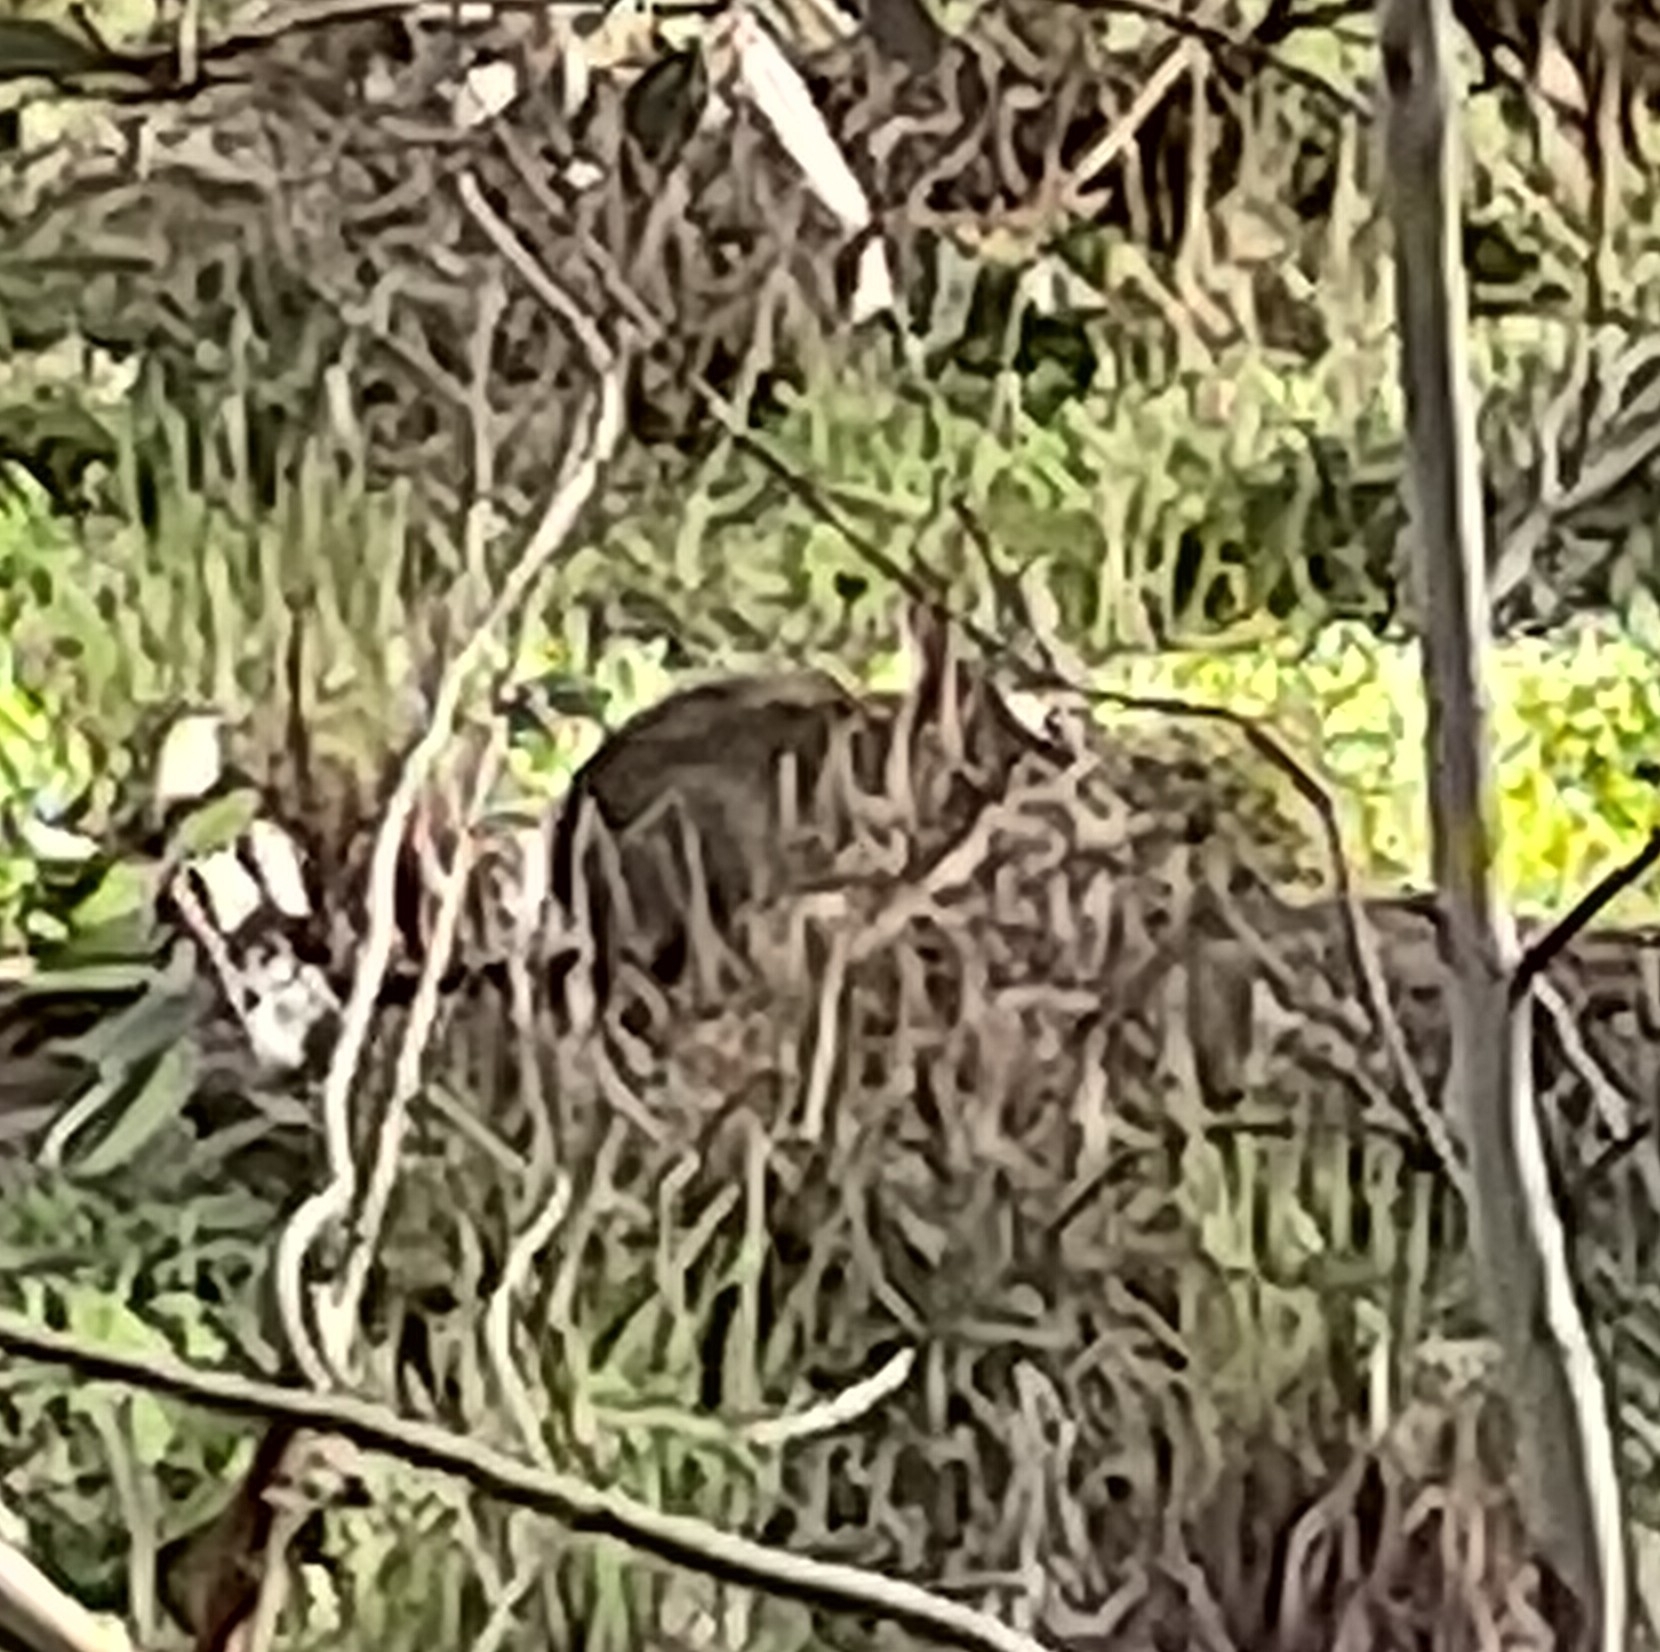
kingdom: Animalia
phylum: Chordata
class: Mammalia
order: Lagomorpha
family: Leporidae
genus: Oryctolagus
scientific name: Oryctolagus cuniculus
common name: European rabbit
